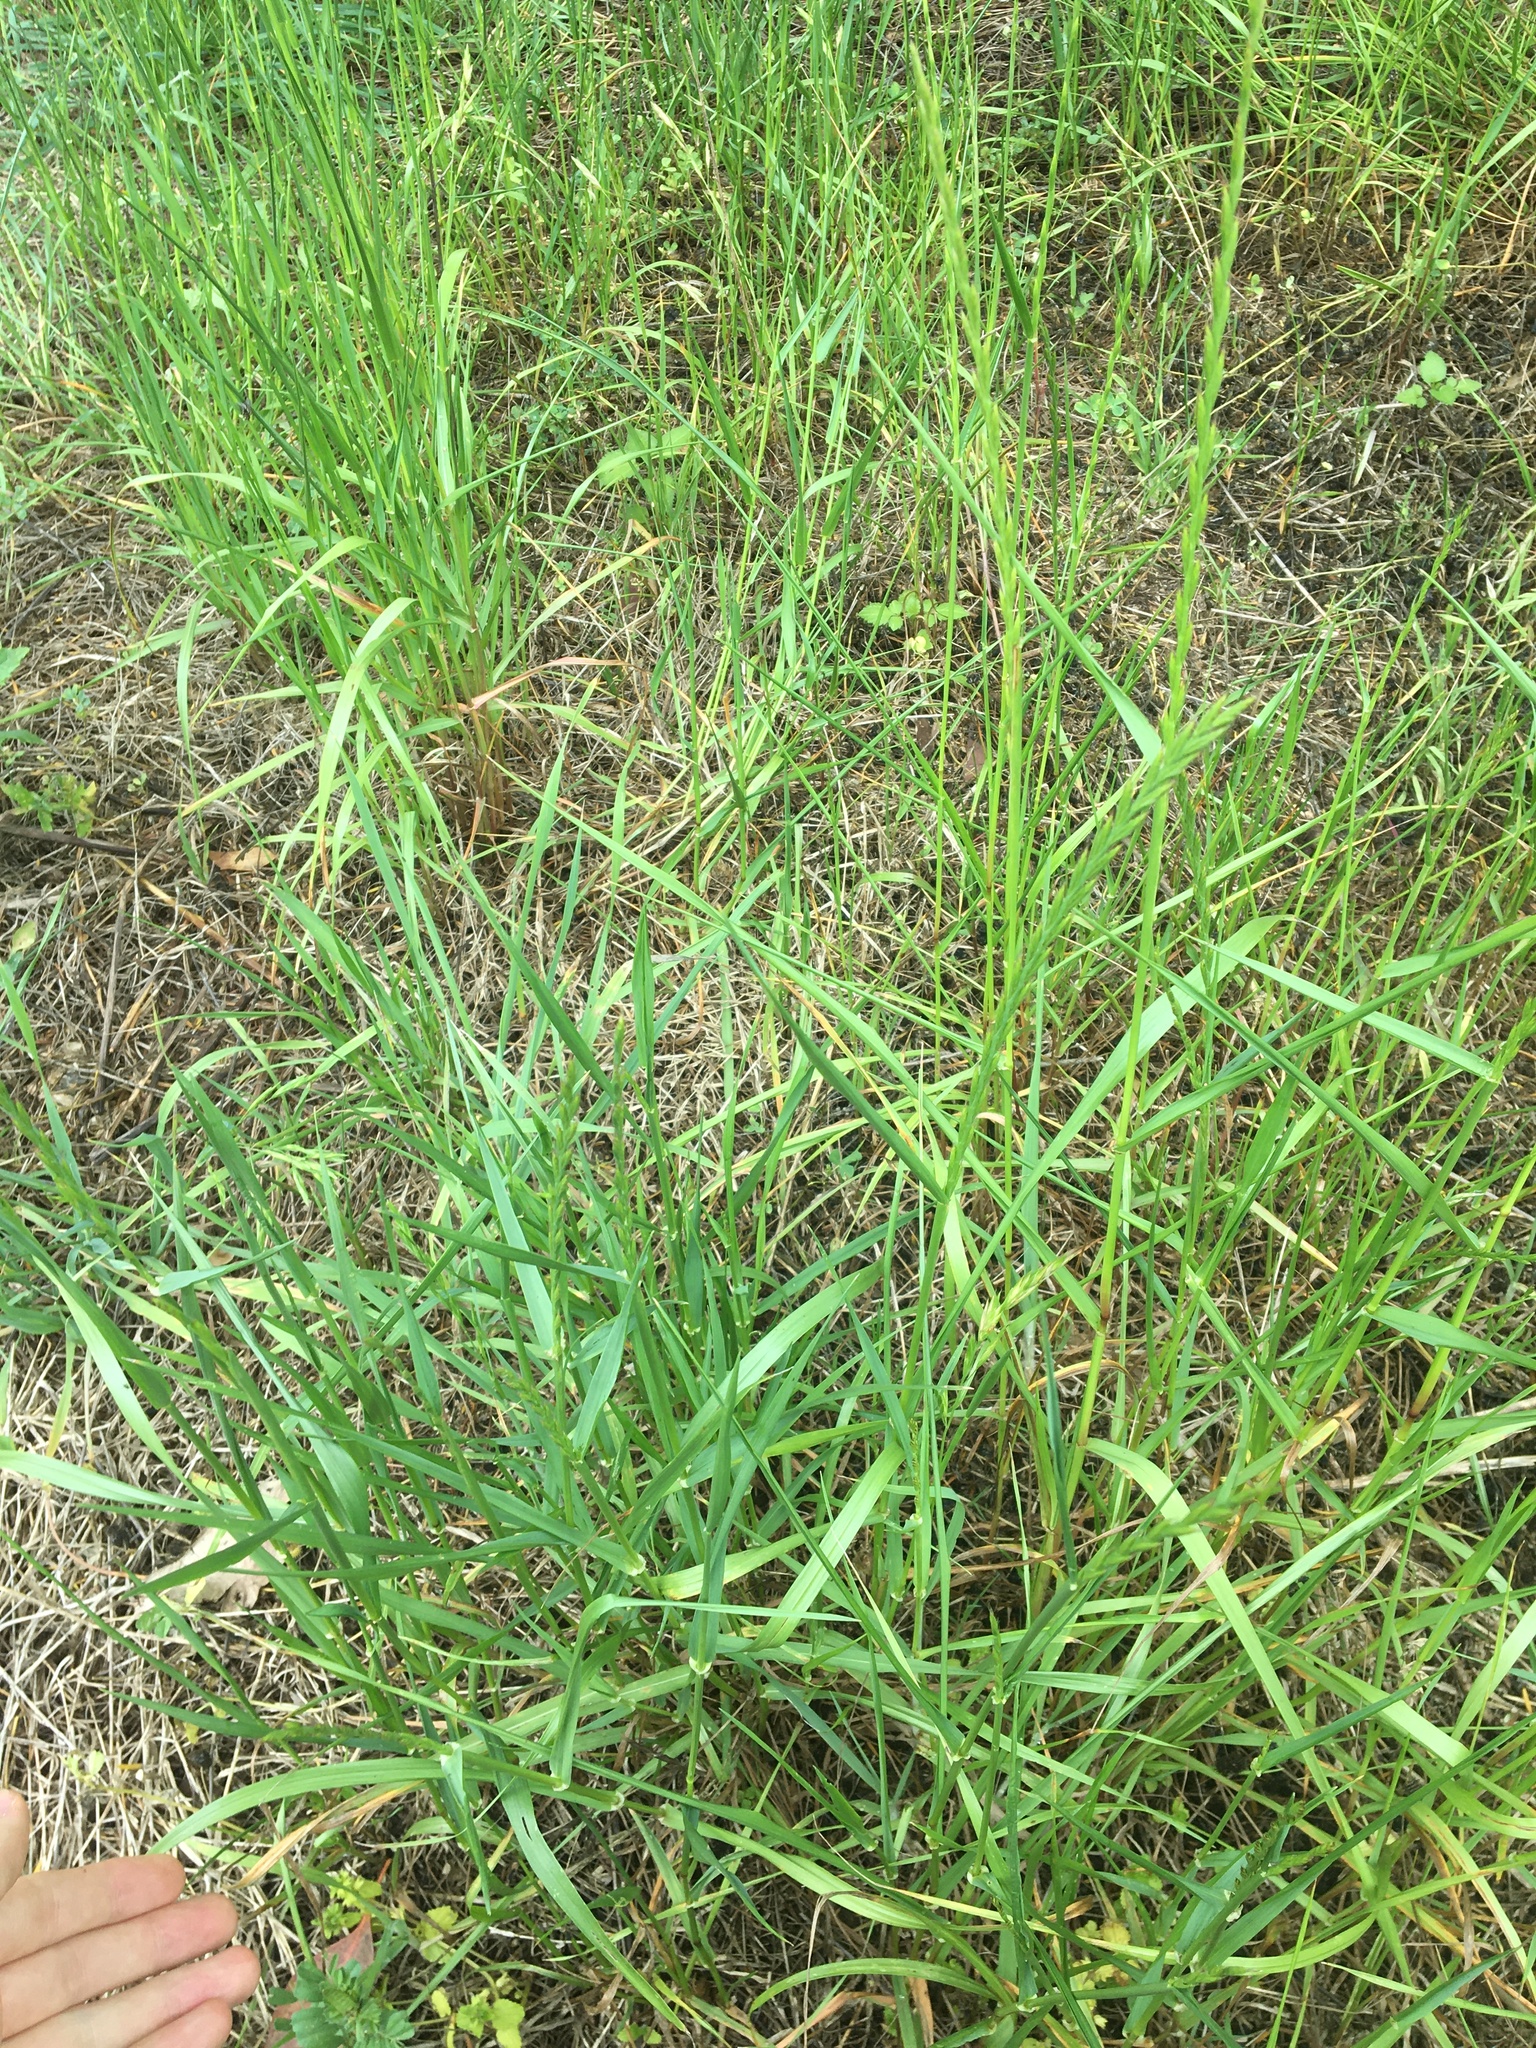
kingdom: Plantae
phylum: Tracheophyta
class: Liliopsida
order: Poales
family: Poaceae
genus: Lolium
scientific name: Lolium multiflorum
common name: Annual ryegrass
